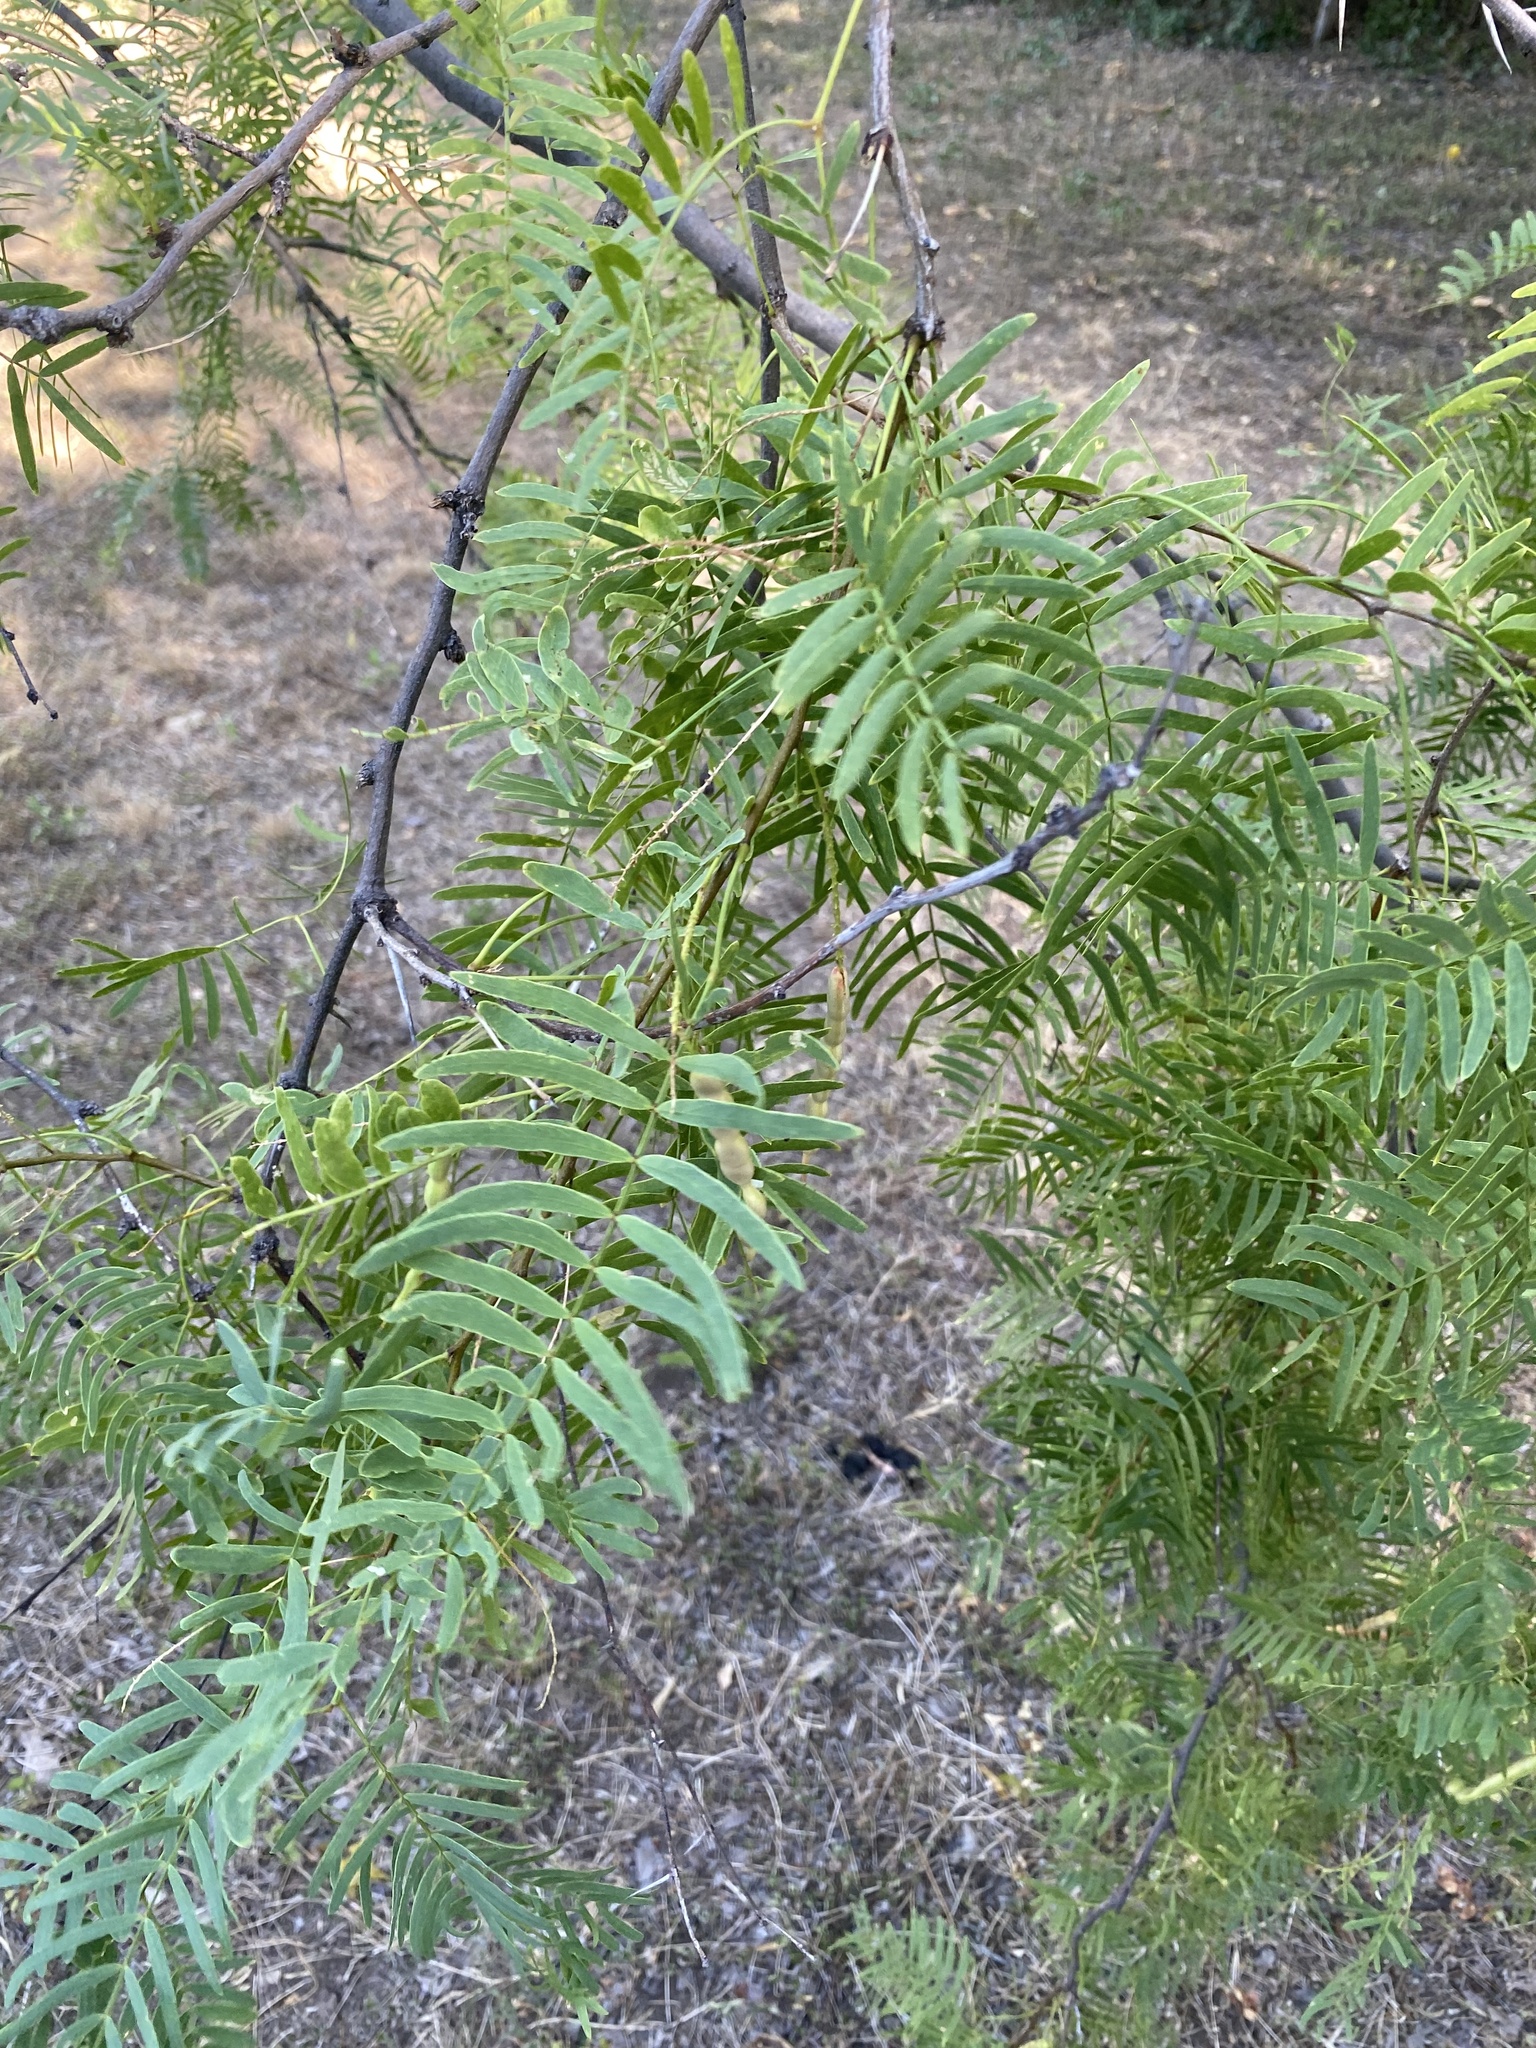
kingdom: Plantae
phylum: Tracheophyta
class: Magnoliopsida
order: Fabales
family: Fabaceae
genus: Prosopis
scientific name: Prosopis glandulosa
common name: Honey mesquite
